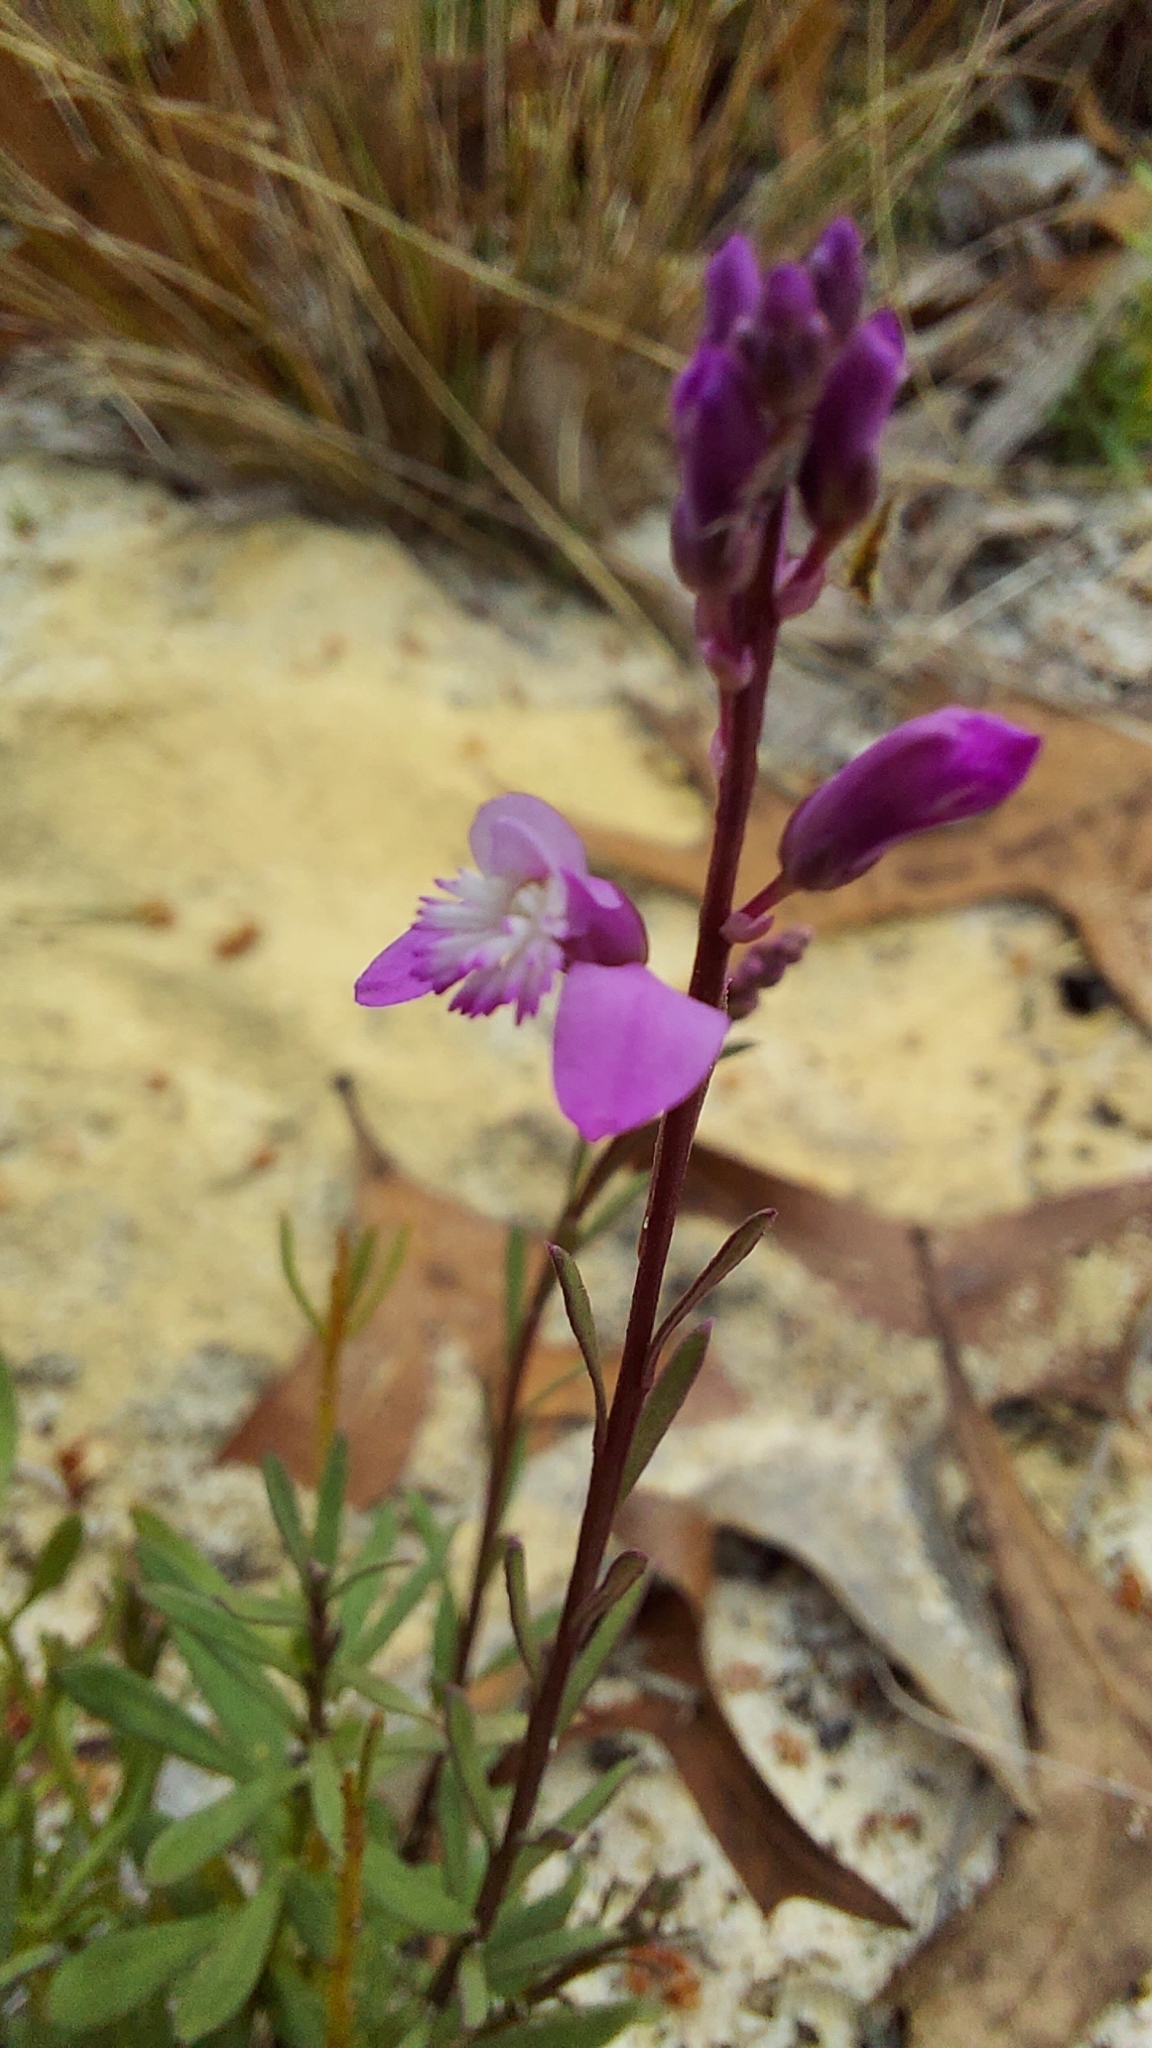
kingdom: Plantae
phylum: Tracheophyta
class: Magnoliopsida
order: Fabales
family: Polygalaceae
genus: Polygala
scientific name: Polygala lewtonii
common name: Lewton's polygala
